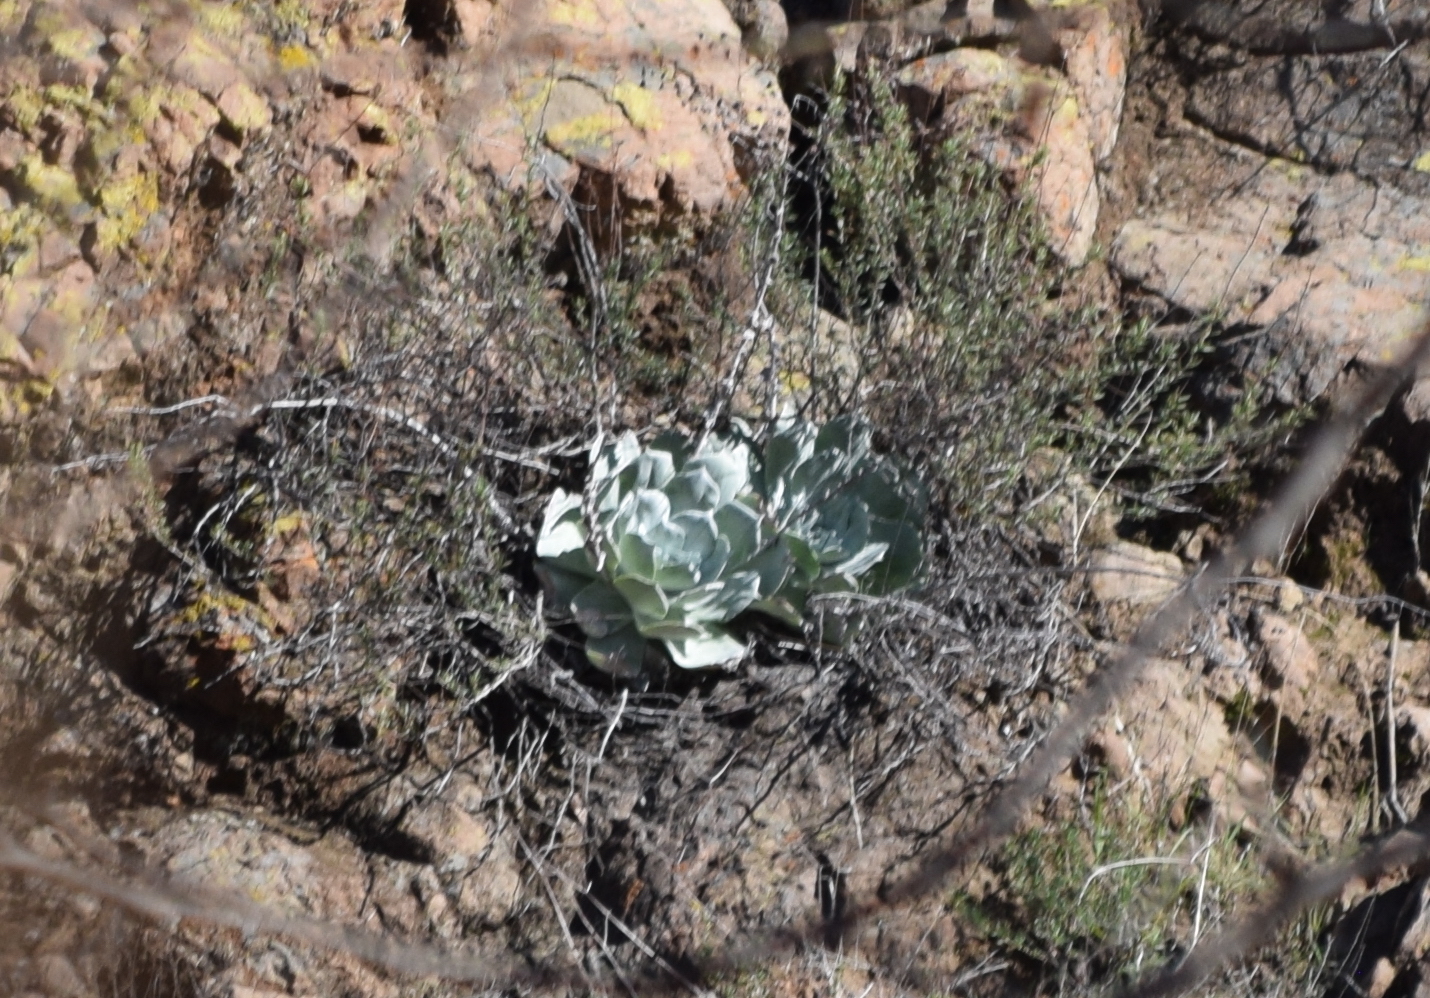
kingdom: Plantae
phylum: Tracheophyta
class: Magnoliopsida
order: Saxifragales
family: Crassulaceae
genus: Dudleya
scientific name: Dudleya pulverulenta
